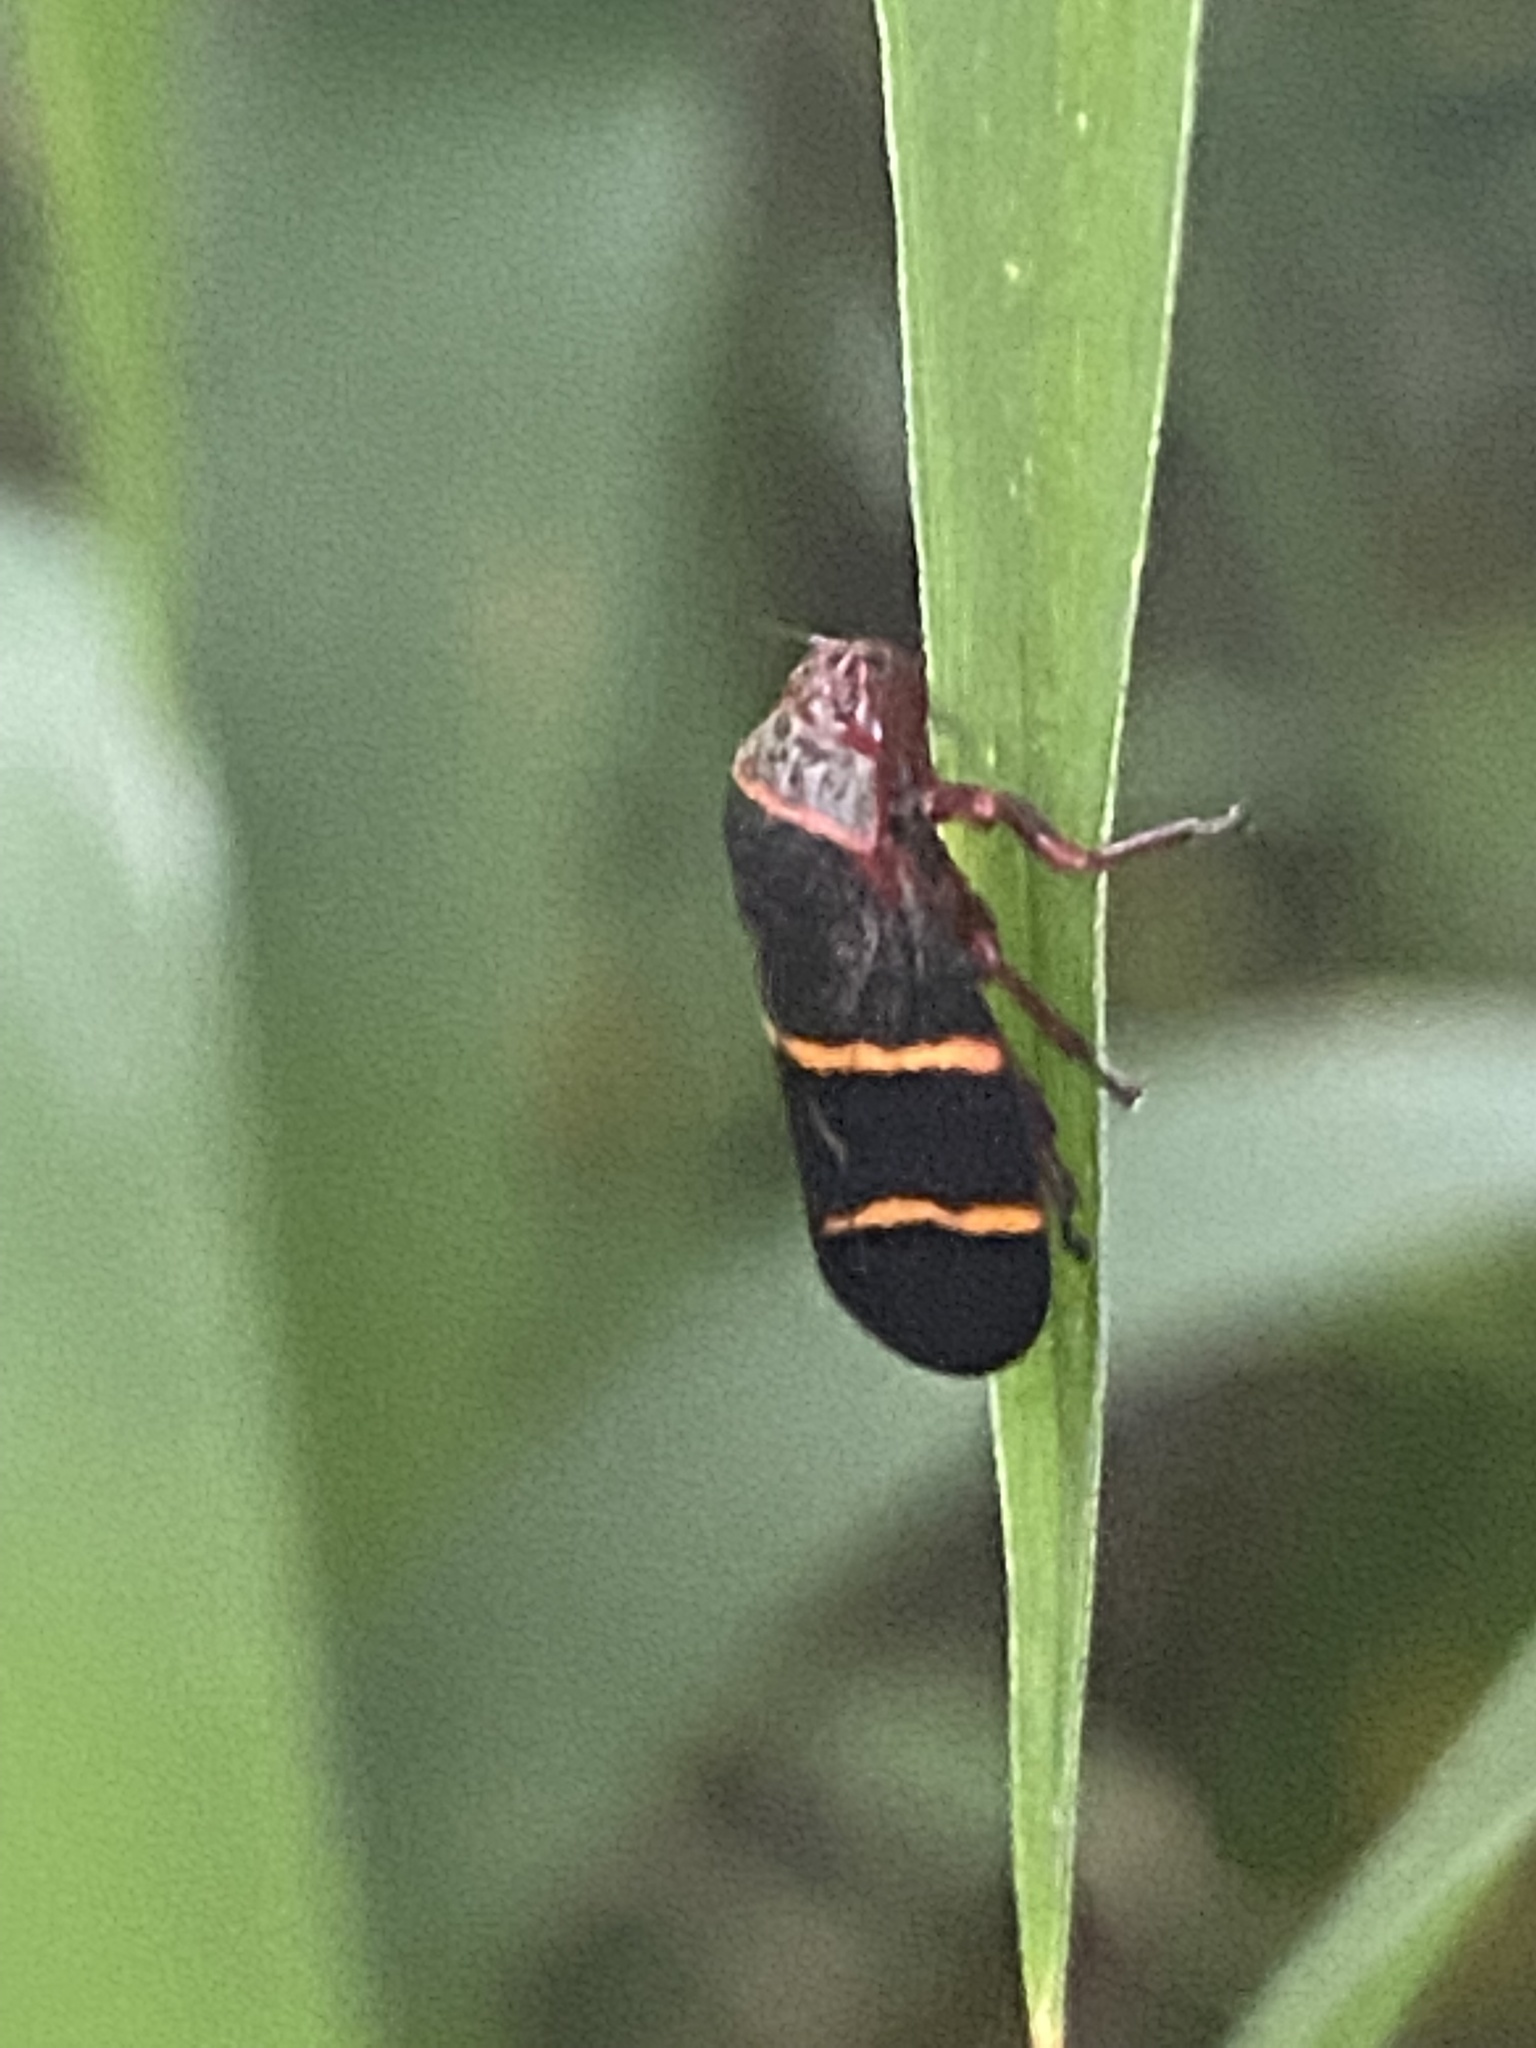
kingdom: Animalia
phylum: Arthropoda
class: Insecta
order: Hemiptera
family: Cercopidae
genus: Prosapia
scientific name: Prosapia bicincta
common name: Twolined spittlebug
